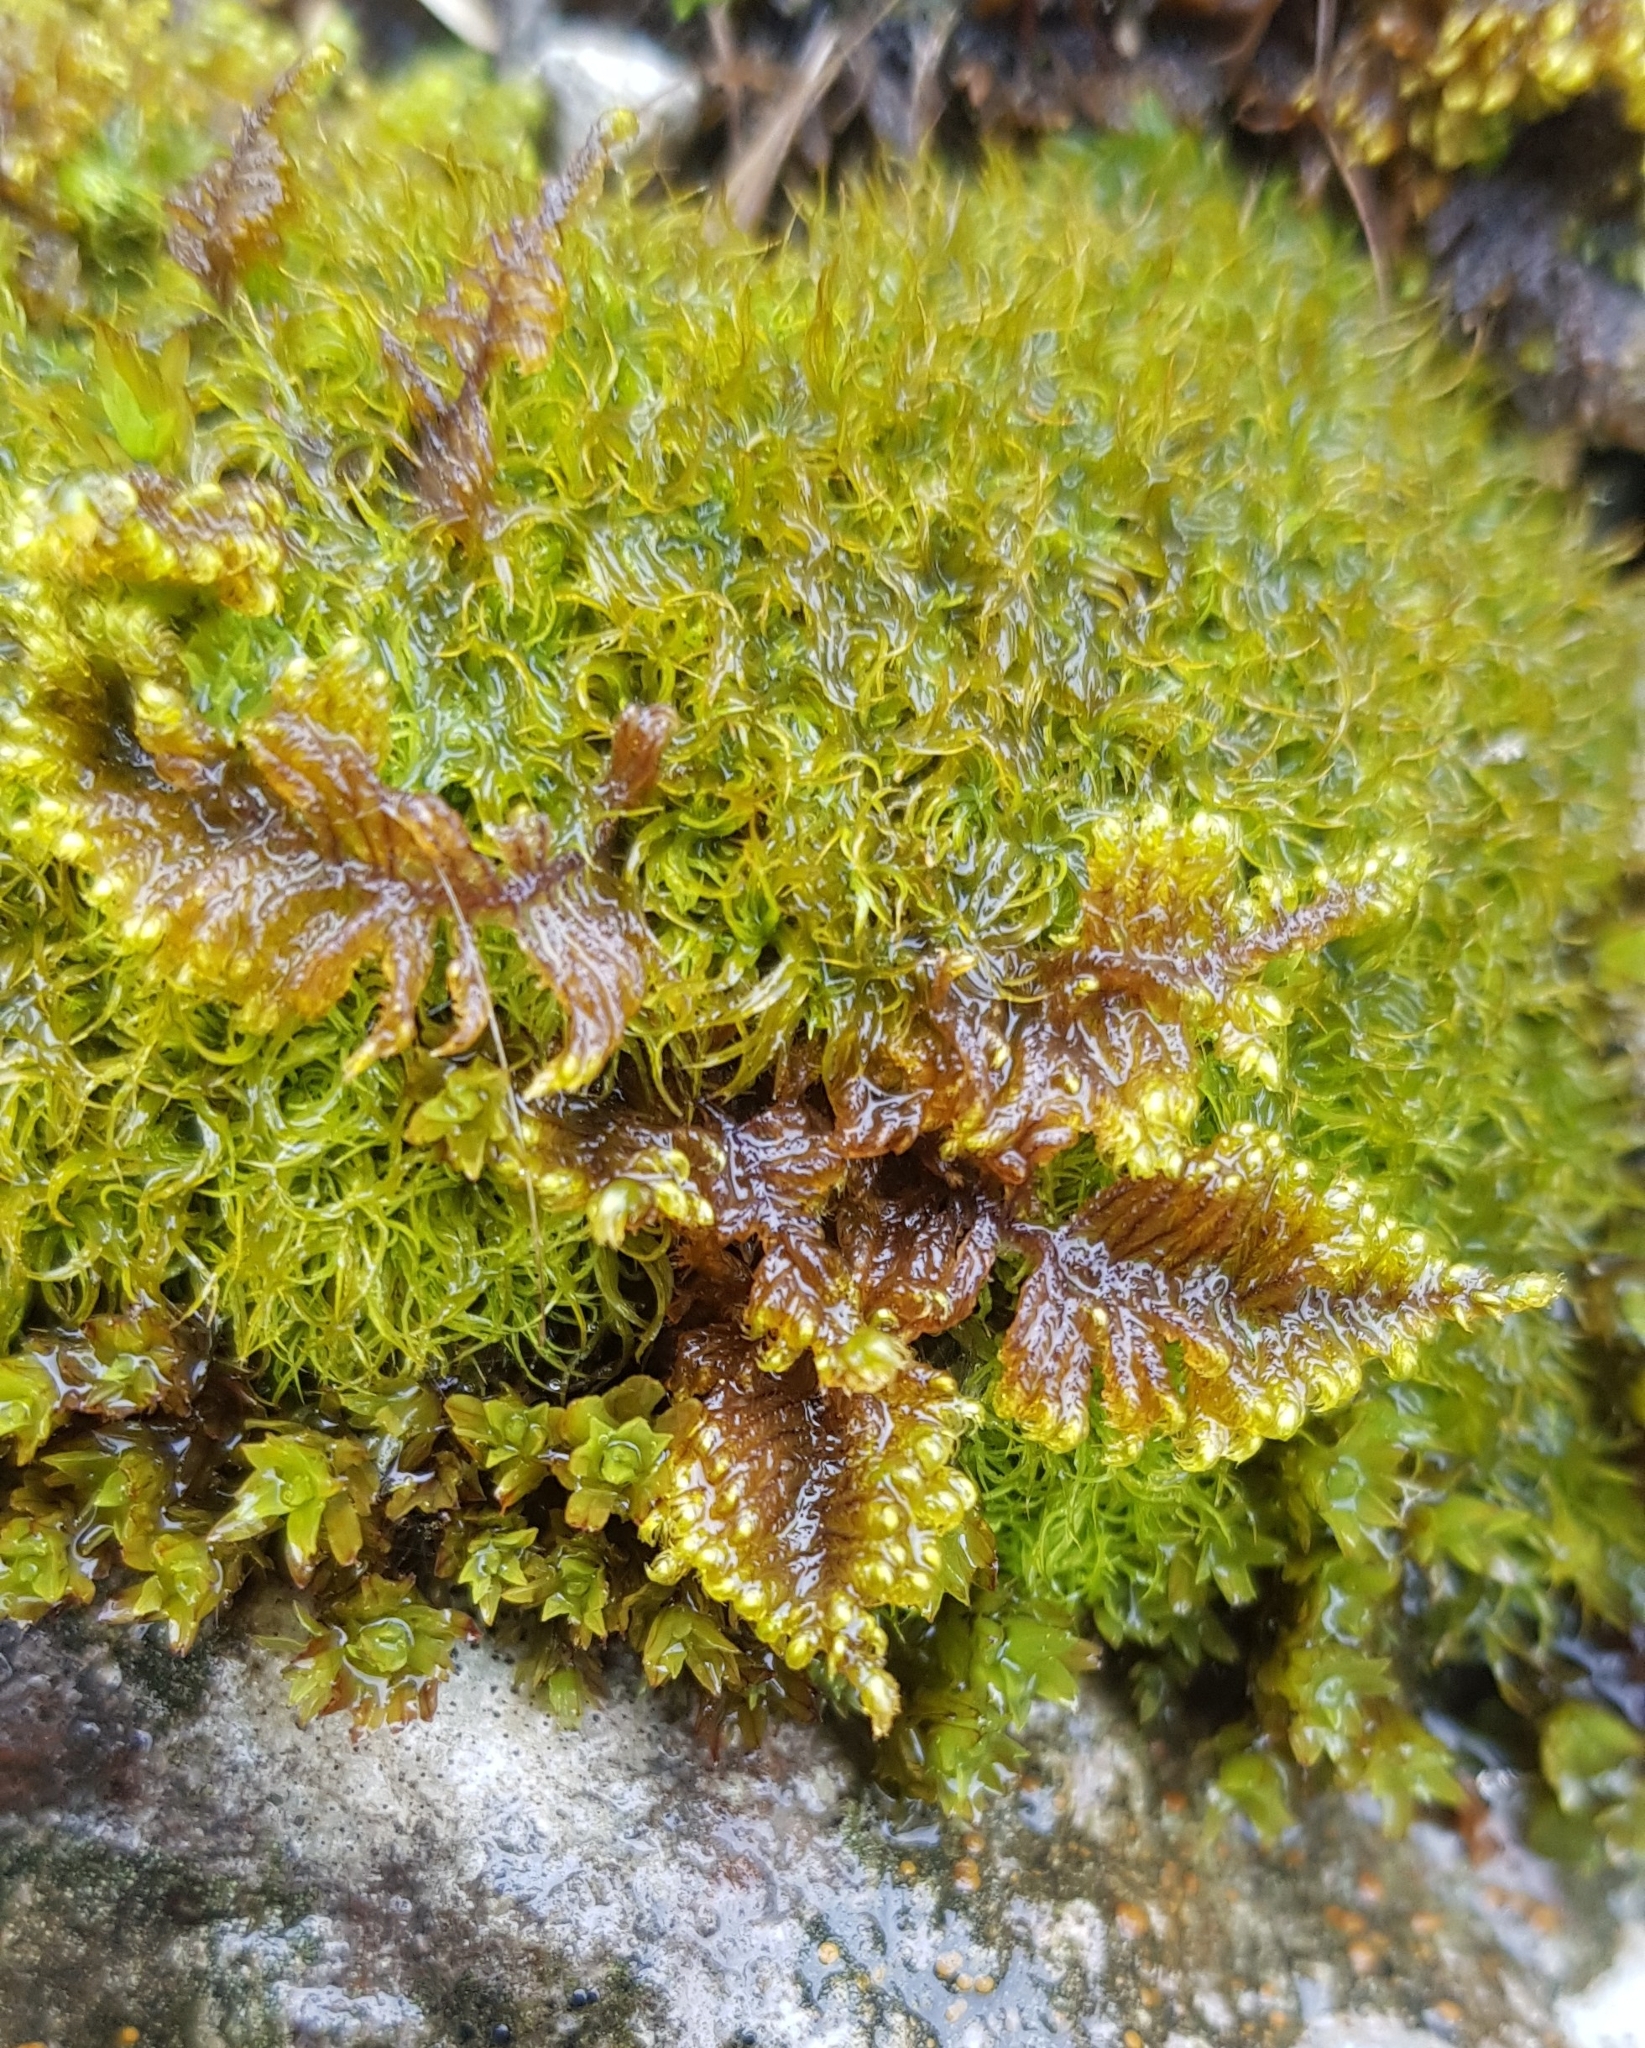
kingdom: Plantae
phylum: Bryophyta
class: Bryopsida
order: Hypnales
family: Myuriaceae
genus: Ctenidium
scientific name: Ctenidium molluscum
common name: Chalk comb-moss
